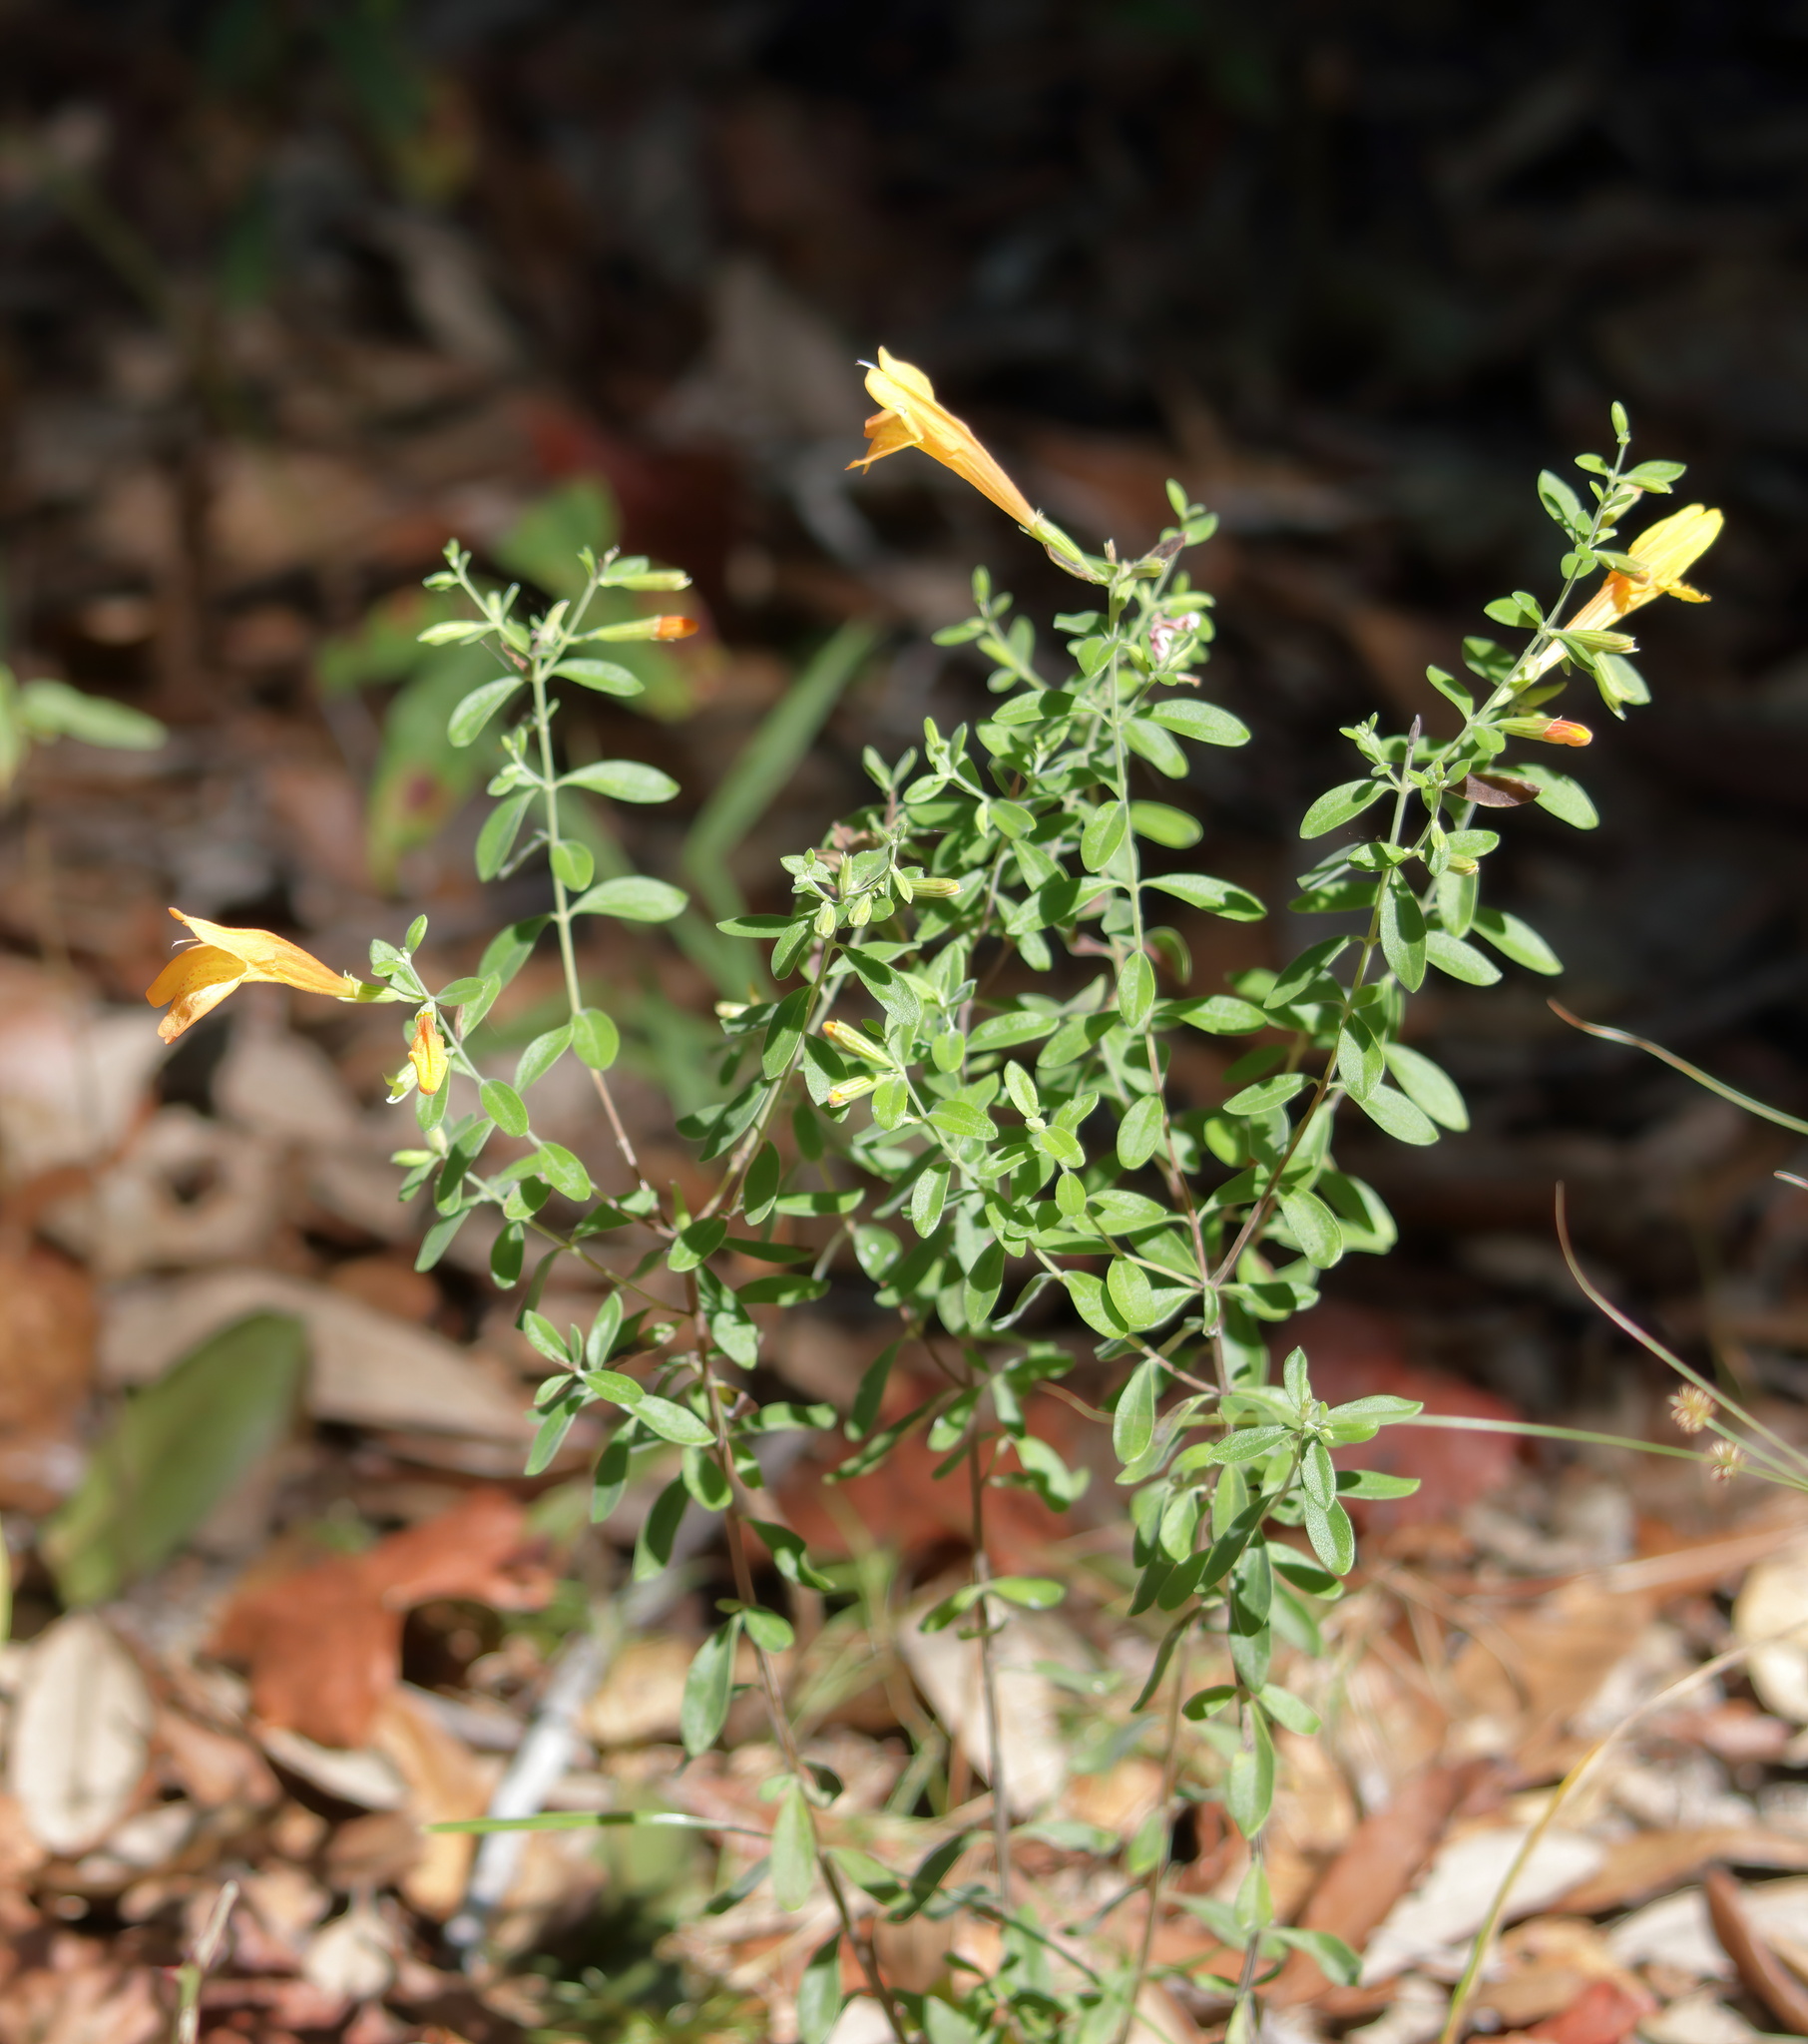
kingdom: Plantae
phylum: Tracheophyta
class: Magnoliopsida
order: Lamiales
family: Lamiaceae
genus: Clinopodium
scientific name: Clinopodium coccineum
